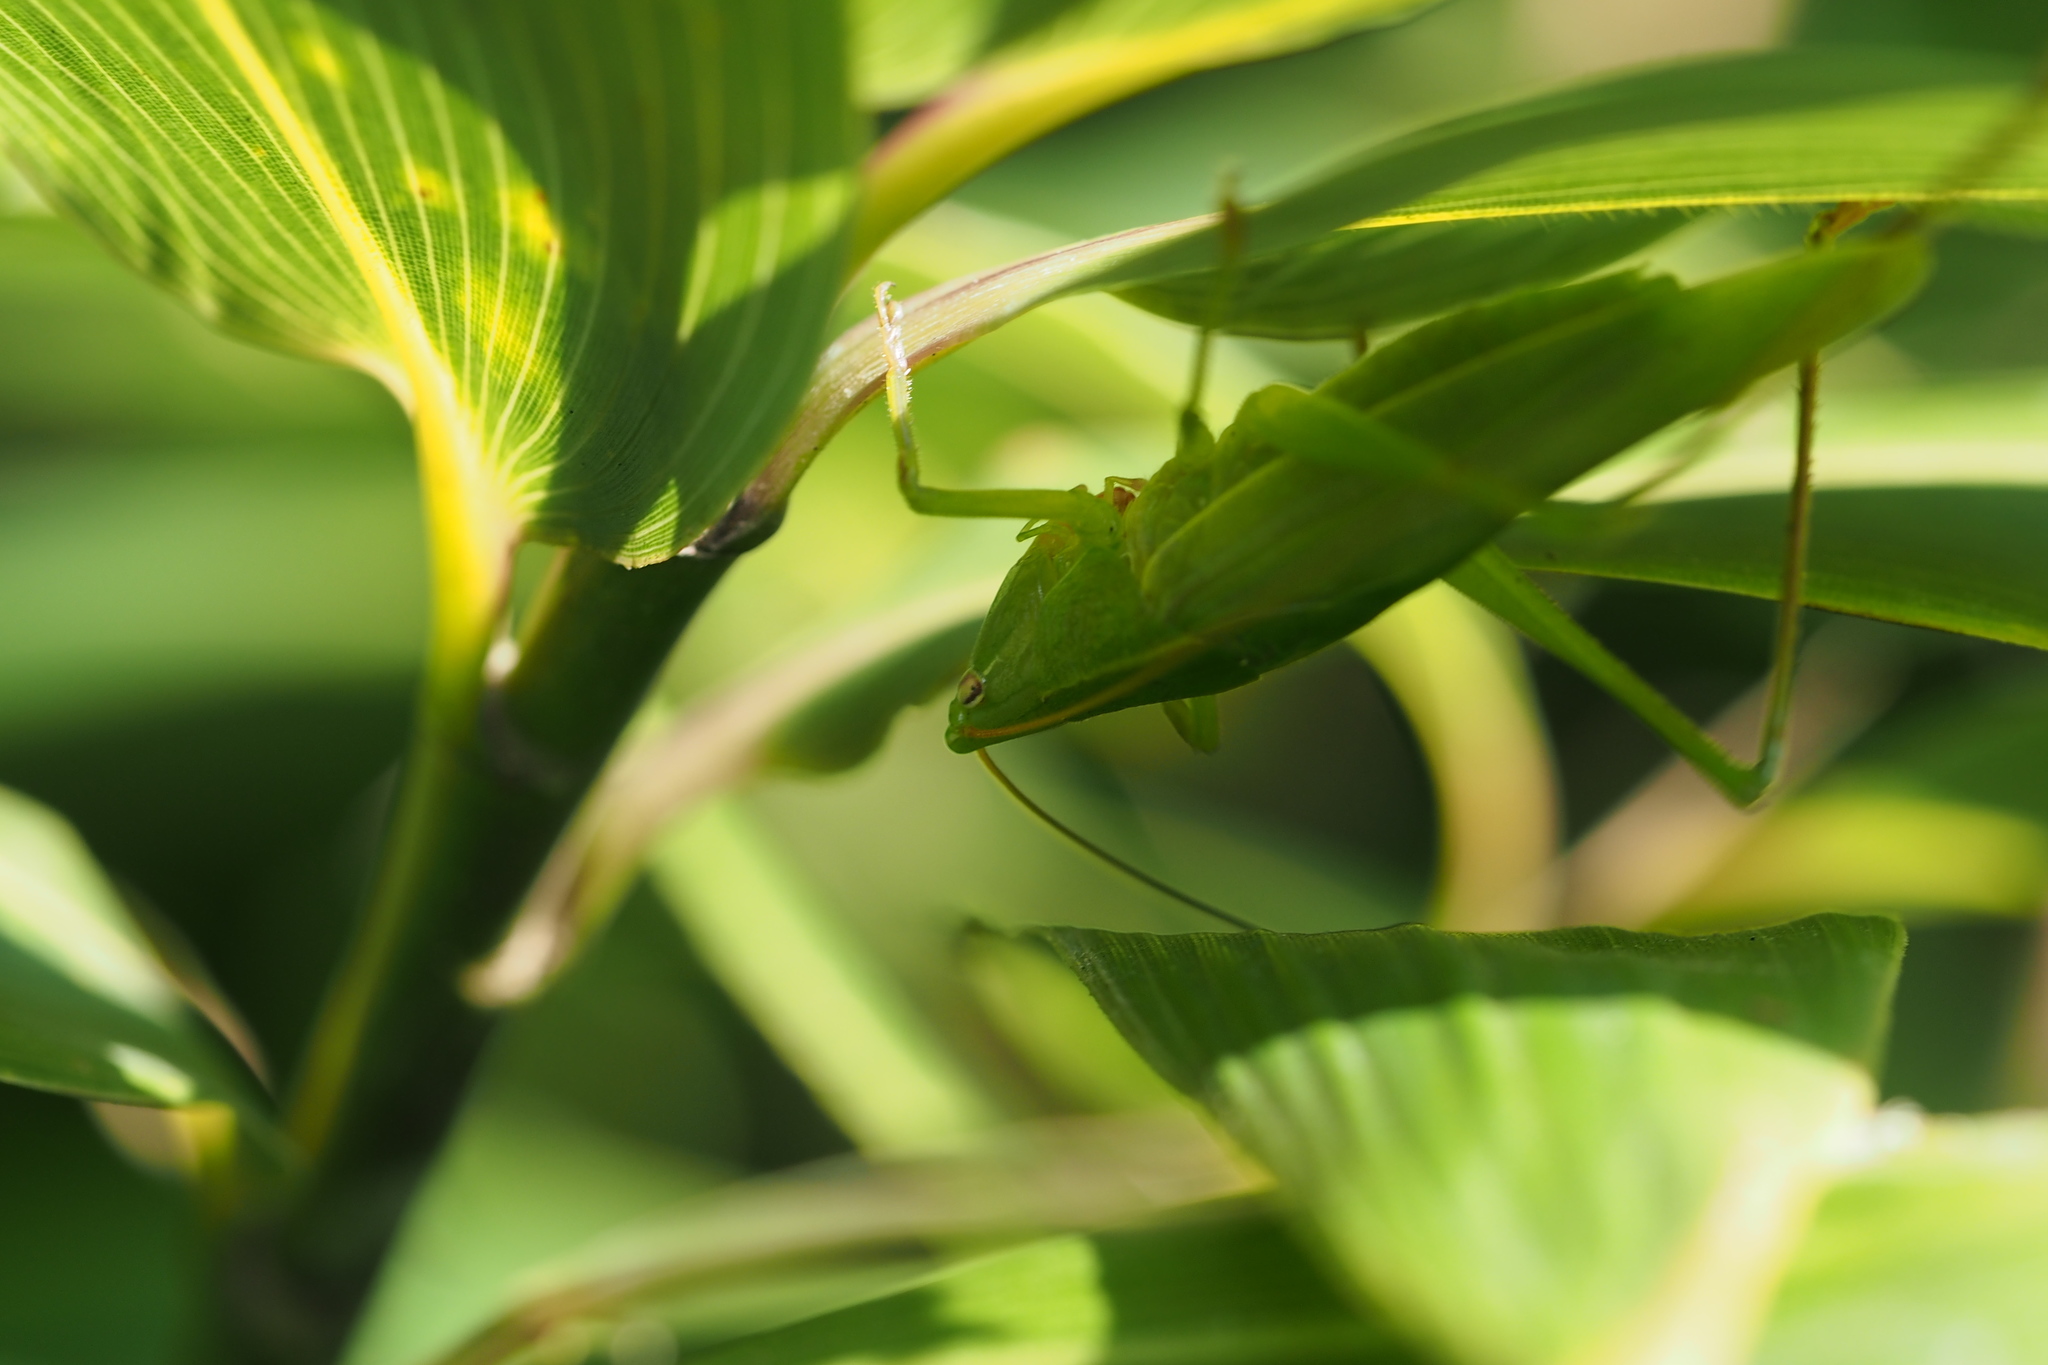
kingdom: Animalia
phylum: Arthropoda
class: Insecta
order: Orthoptera
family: Tettigoniidae
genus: Ruspolia
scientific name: Ruspolia dubia
